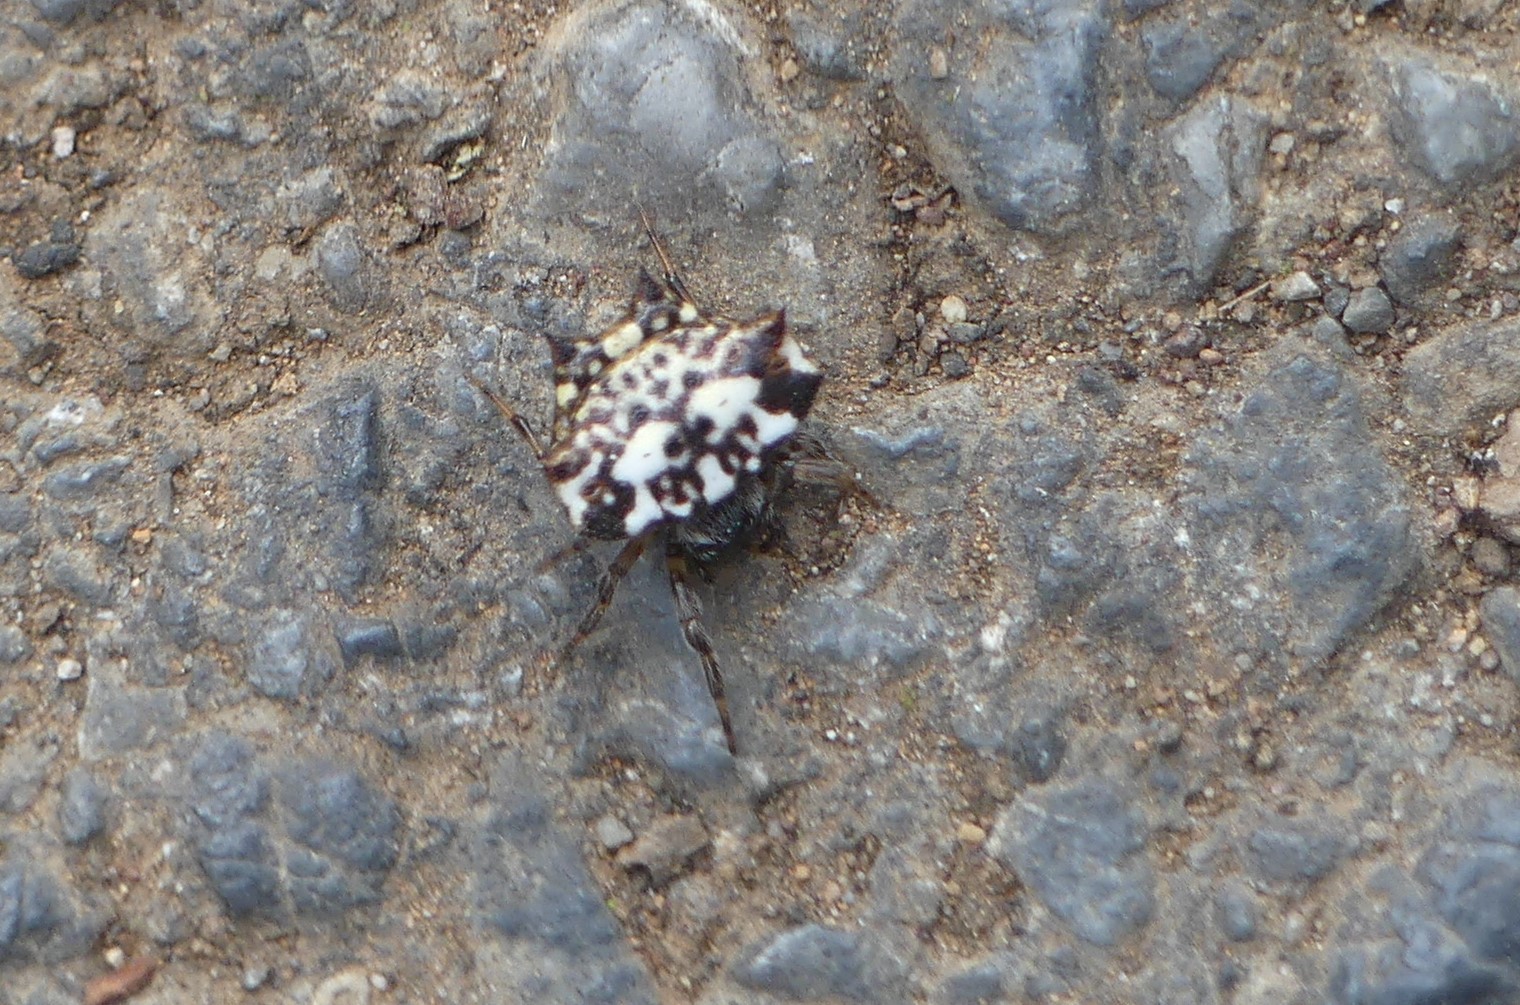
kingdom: Animalia
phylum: Arthropoda
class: Arachnida
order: Araneae
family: Araneidae
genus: Gasteracantha
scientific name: Gasteracantha kuhli
